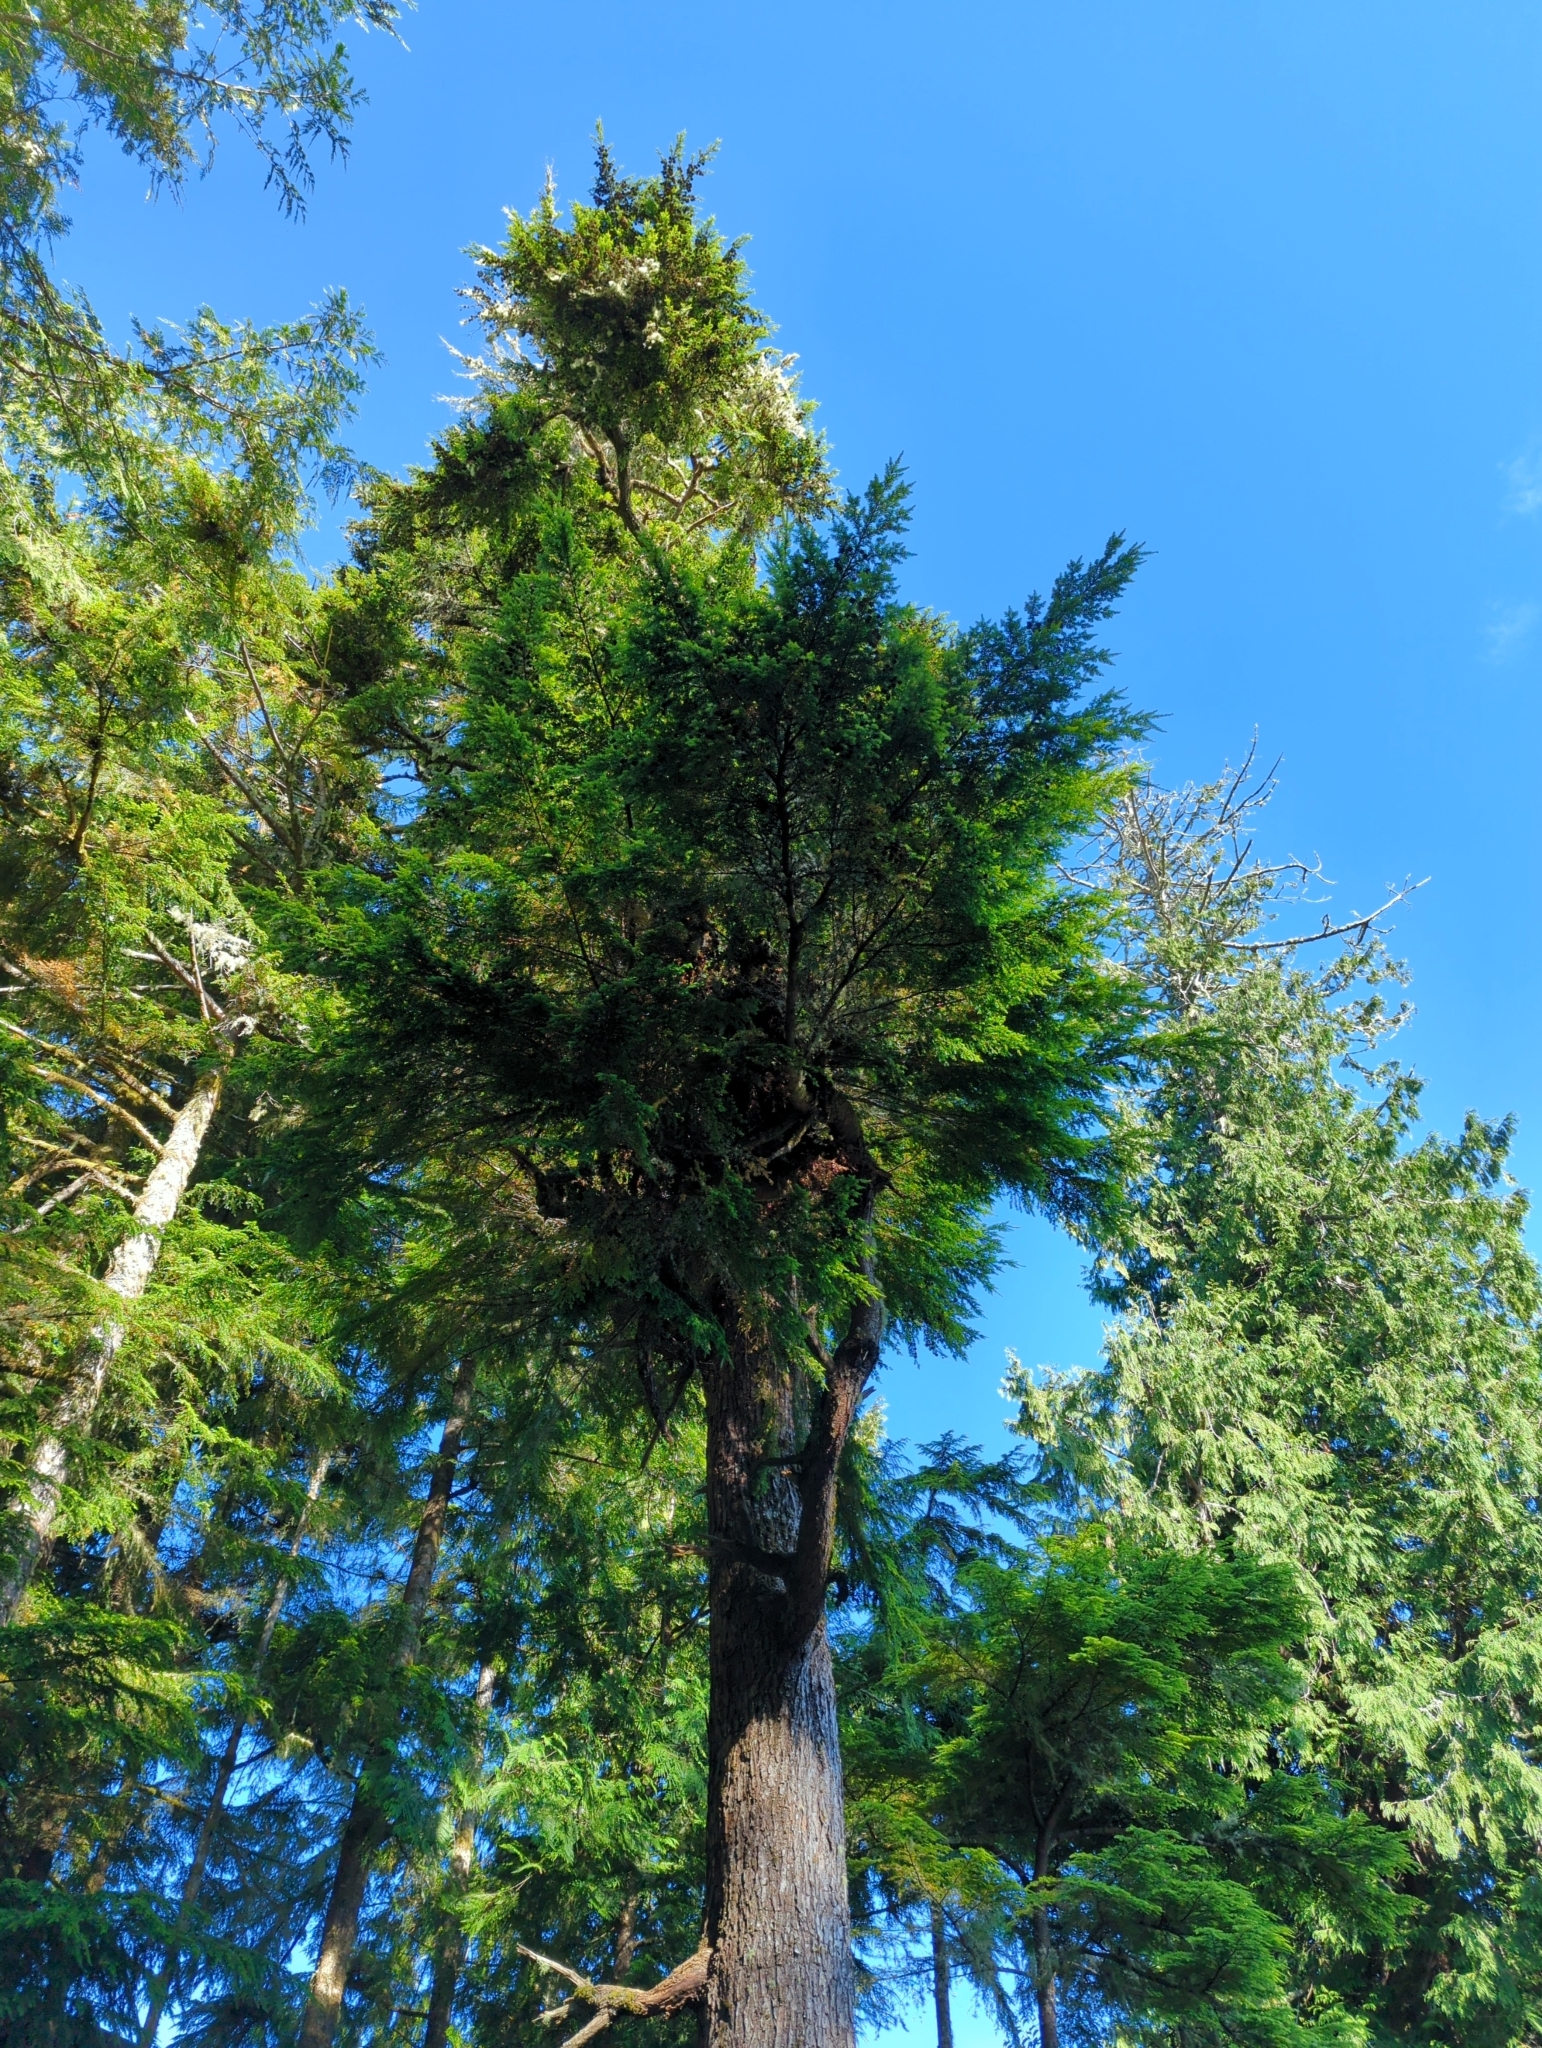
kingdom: Plantae
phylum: Tracheophyta
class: Pinopsida
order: Pinales
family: Pinaceae
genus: Tsuga
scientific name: Tsuga heterophylla
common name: Western hemlock
